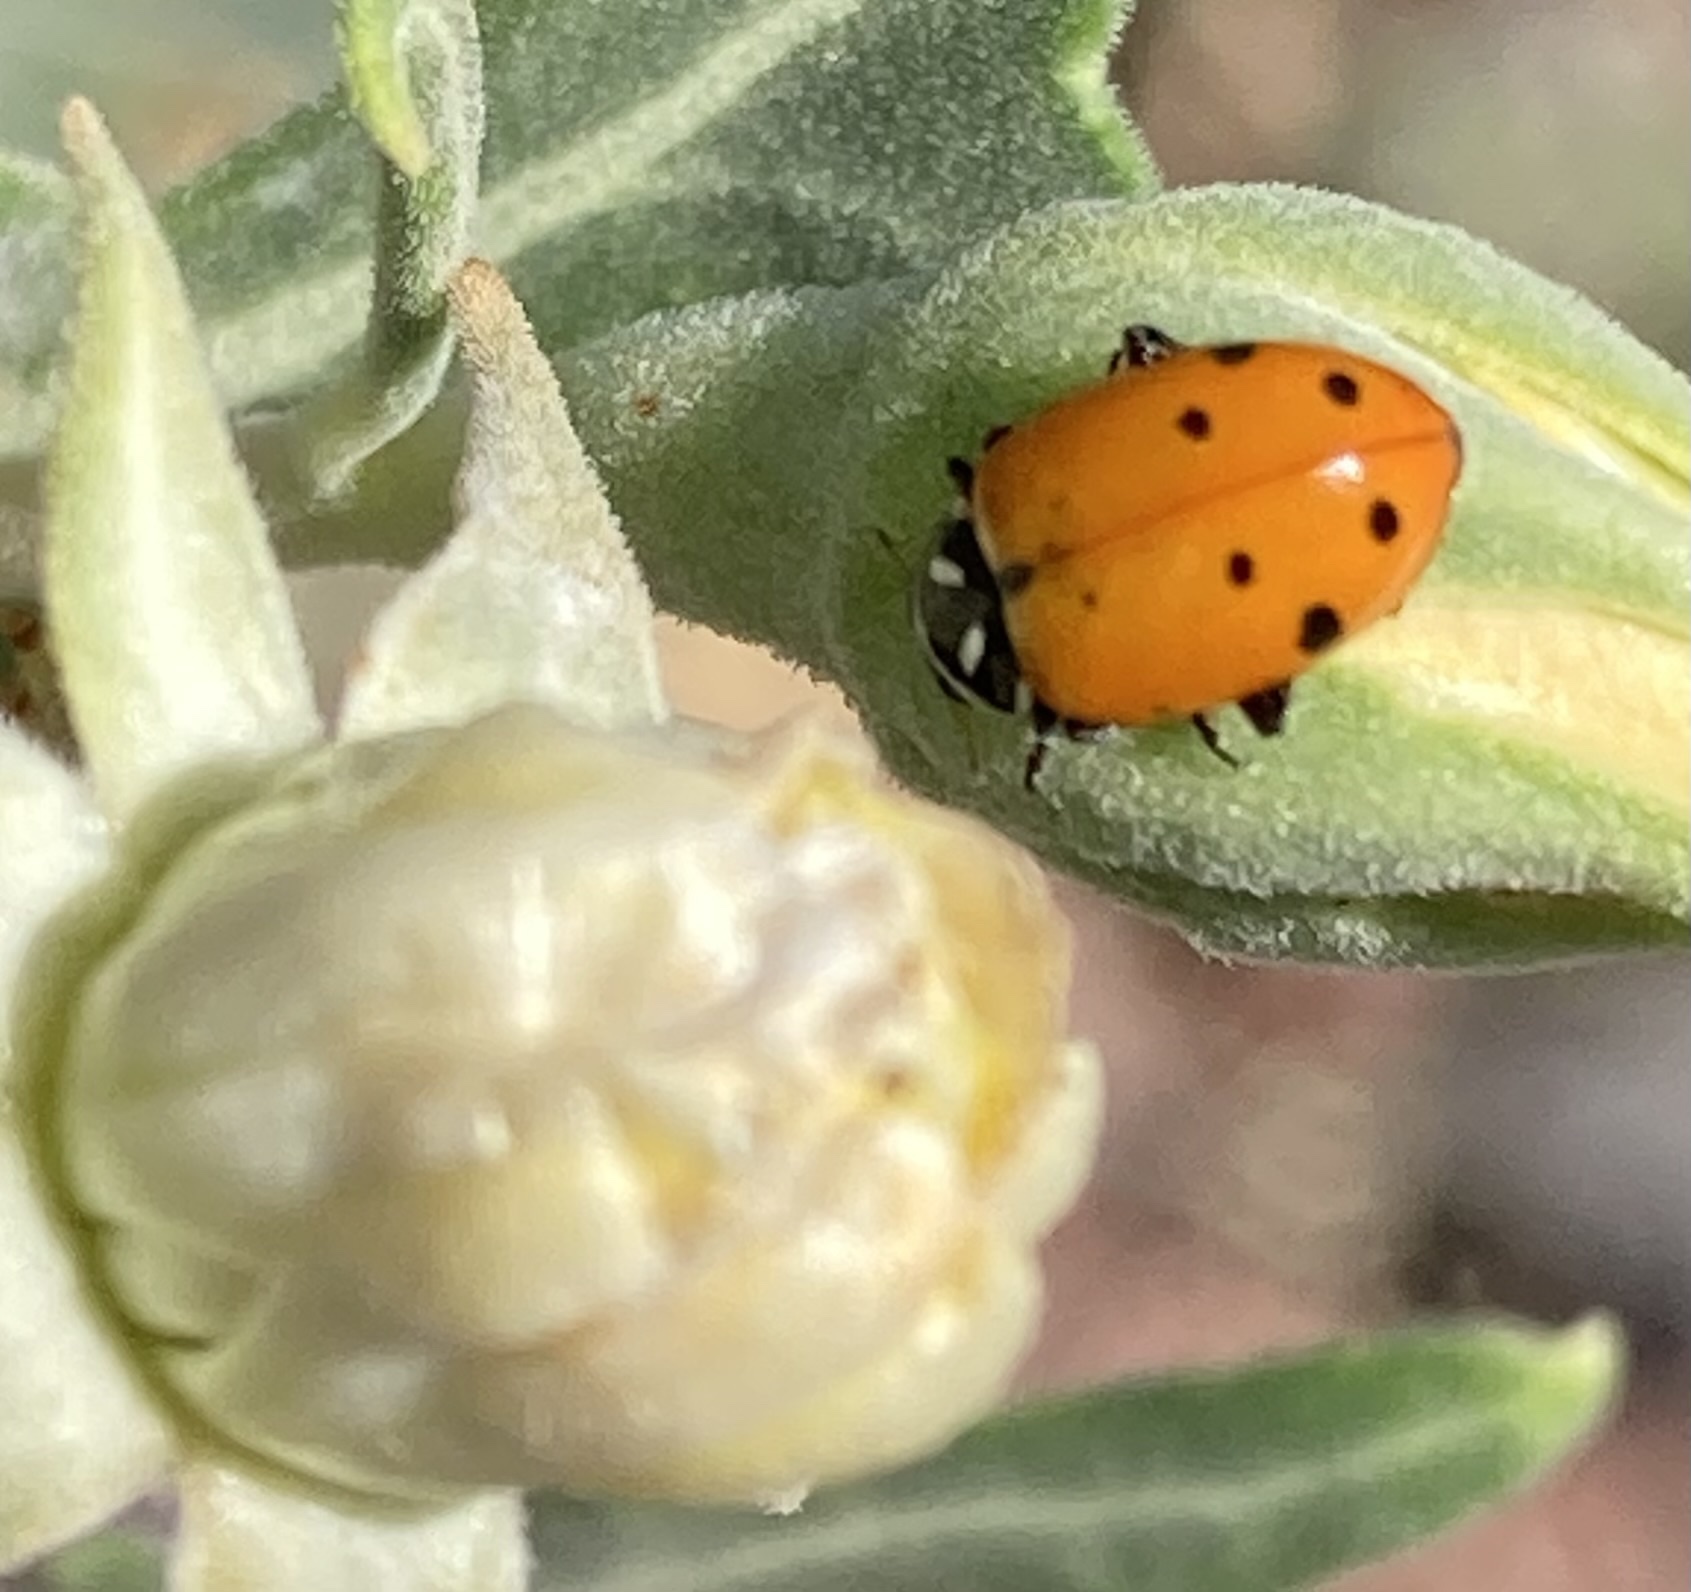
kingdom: Animalia
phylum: Arthropoda
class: Insecta
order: Coleoptera
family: Coccinellidae
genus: Hippodamia
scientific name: Hippodamia convergens
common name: Convergent lady beetle
